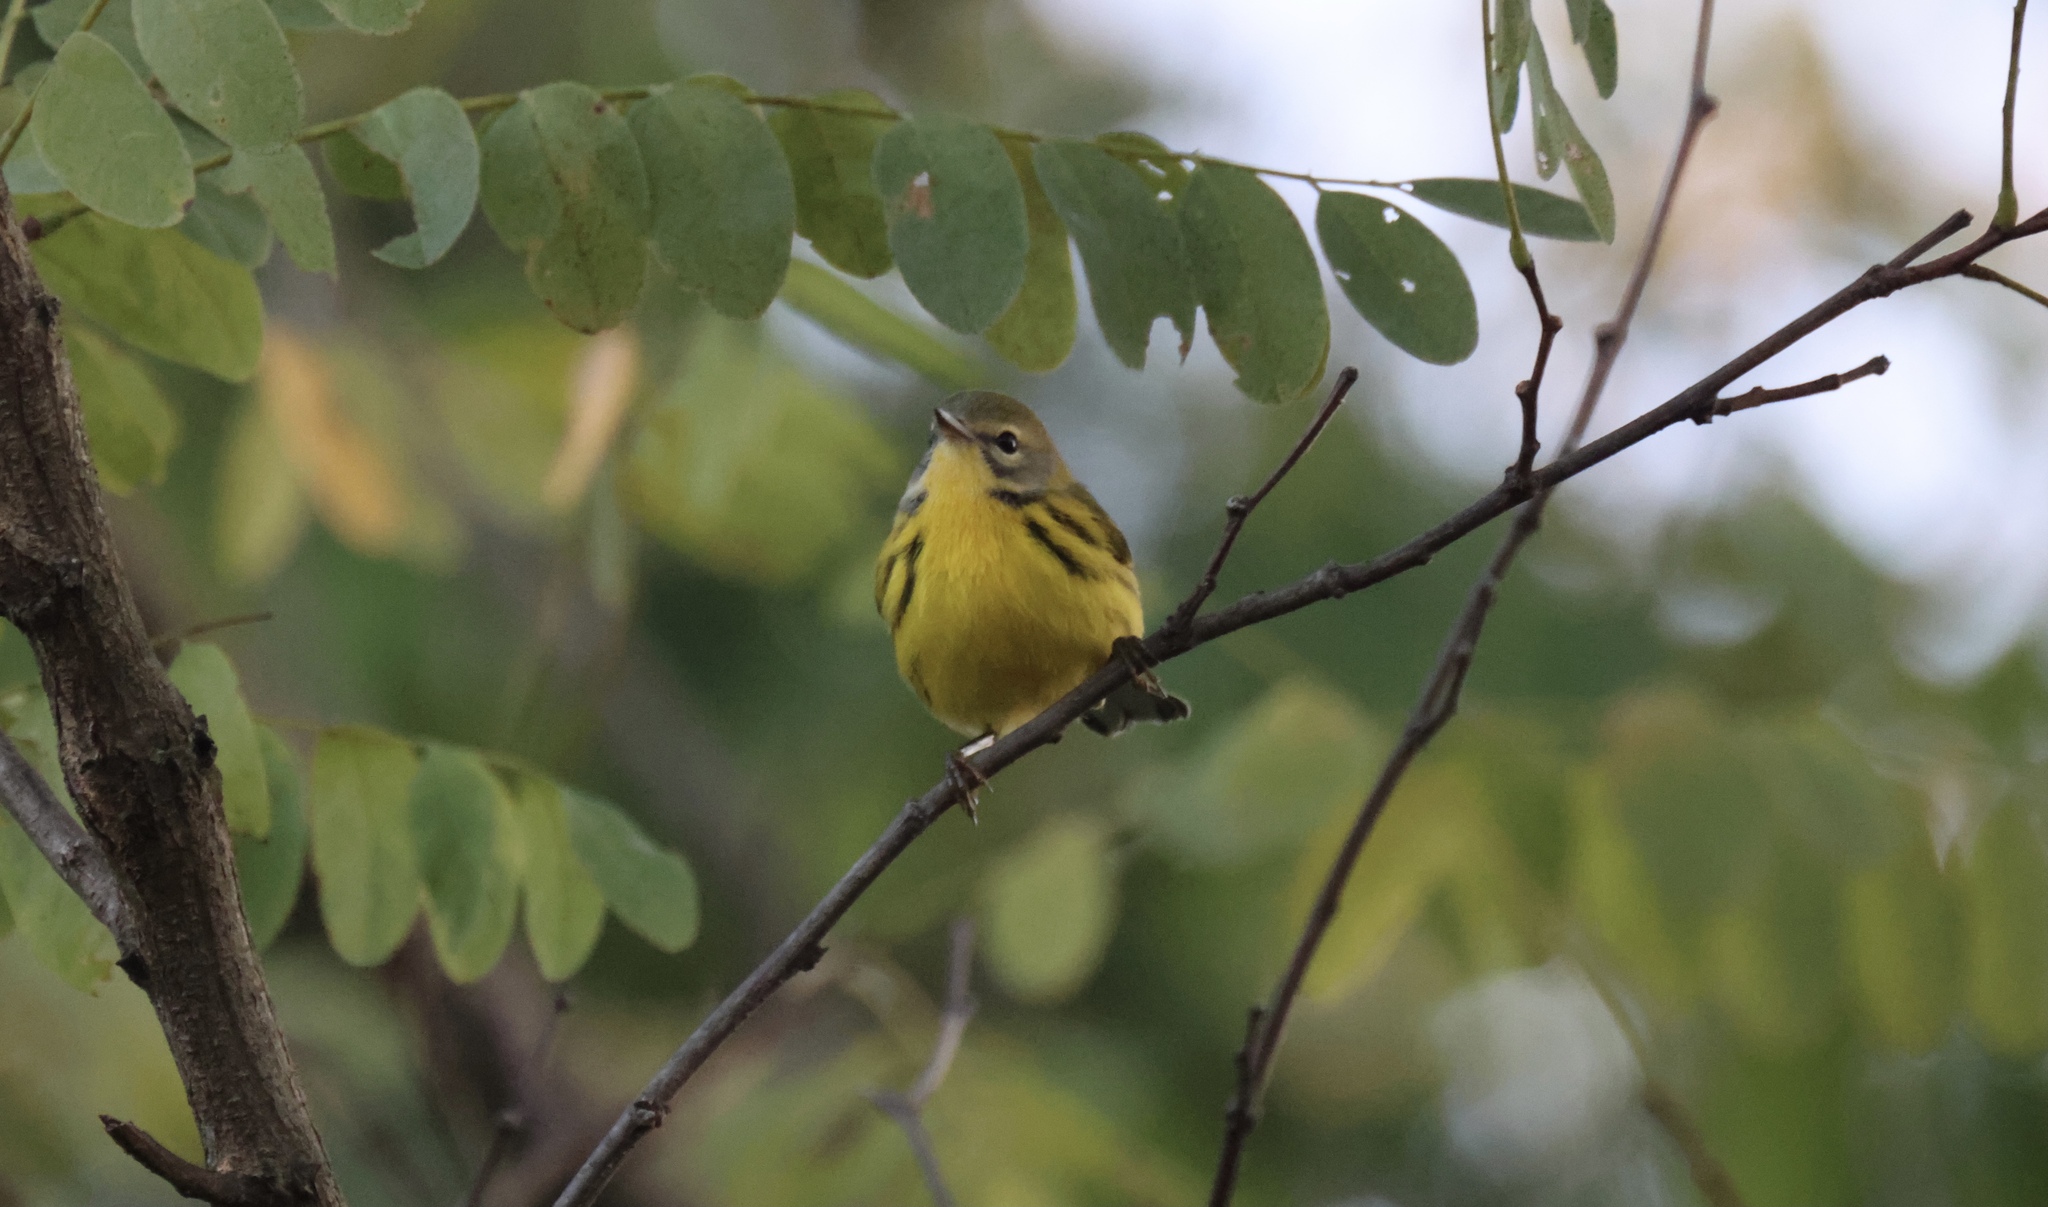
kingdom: Animalia
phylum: Chordata
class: Aves
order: Passeriformes
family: Parulidae
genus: Setophaga
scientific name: Setophaga discolor
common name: Prairie warbler
